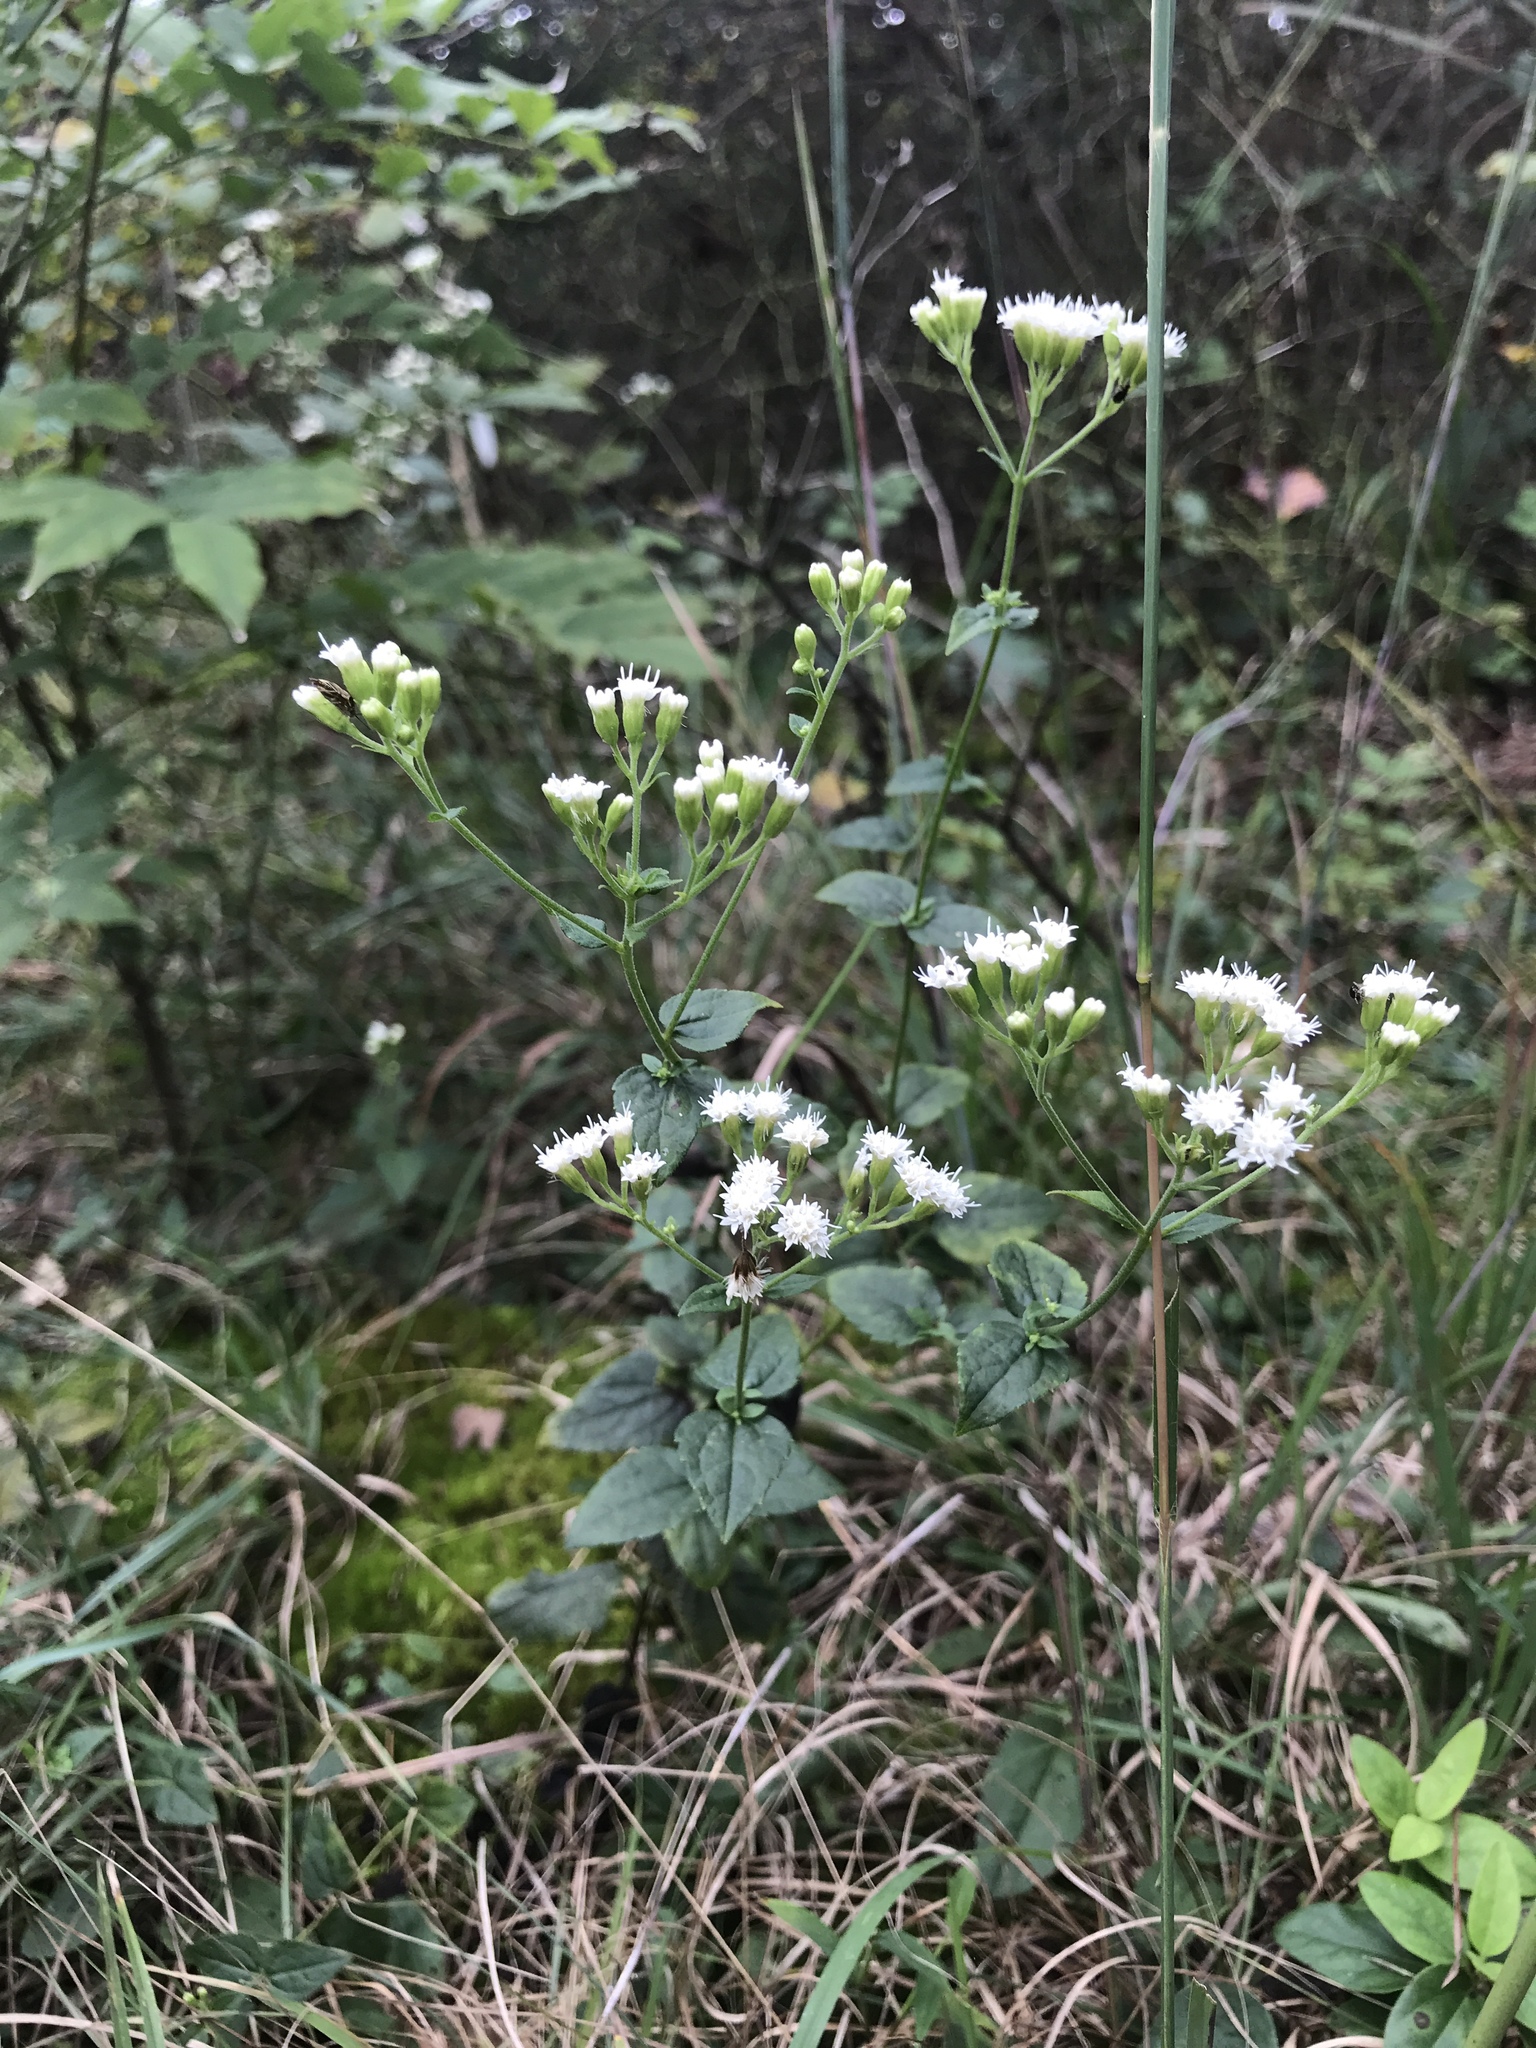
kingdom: Plantae
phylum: Tracheophyta
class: Magnoliopsida
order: Asterales
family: Asteraceae
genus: Ageratina
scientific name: Ageratina aromatica
